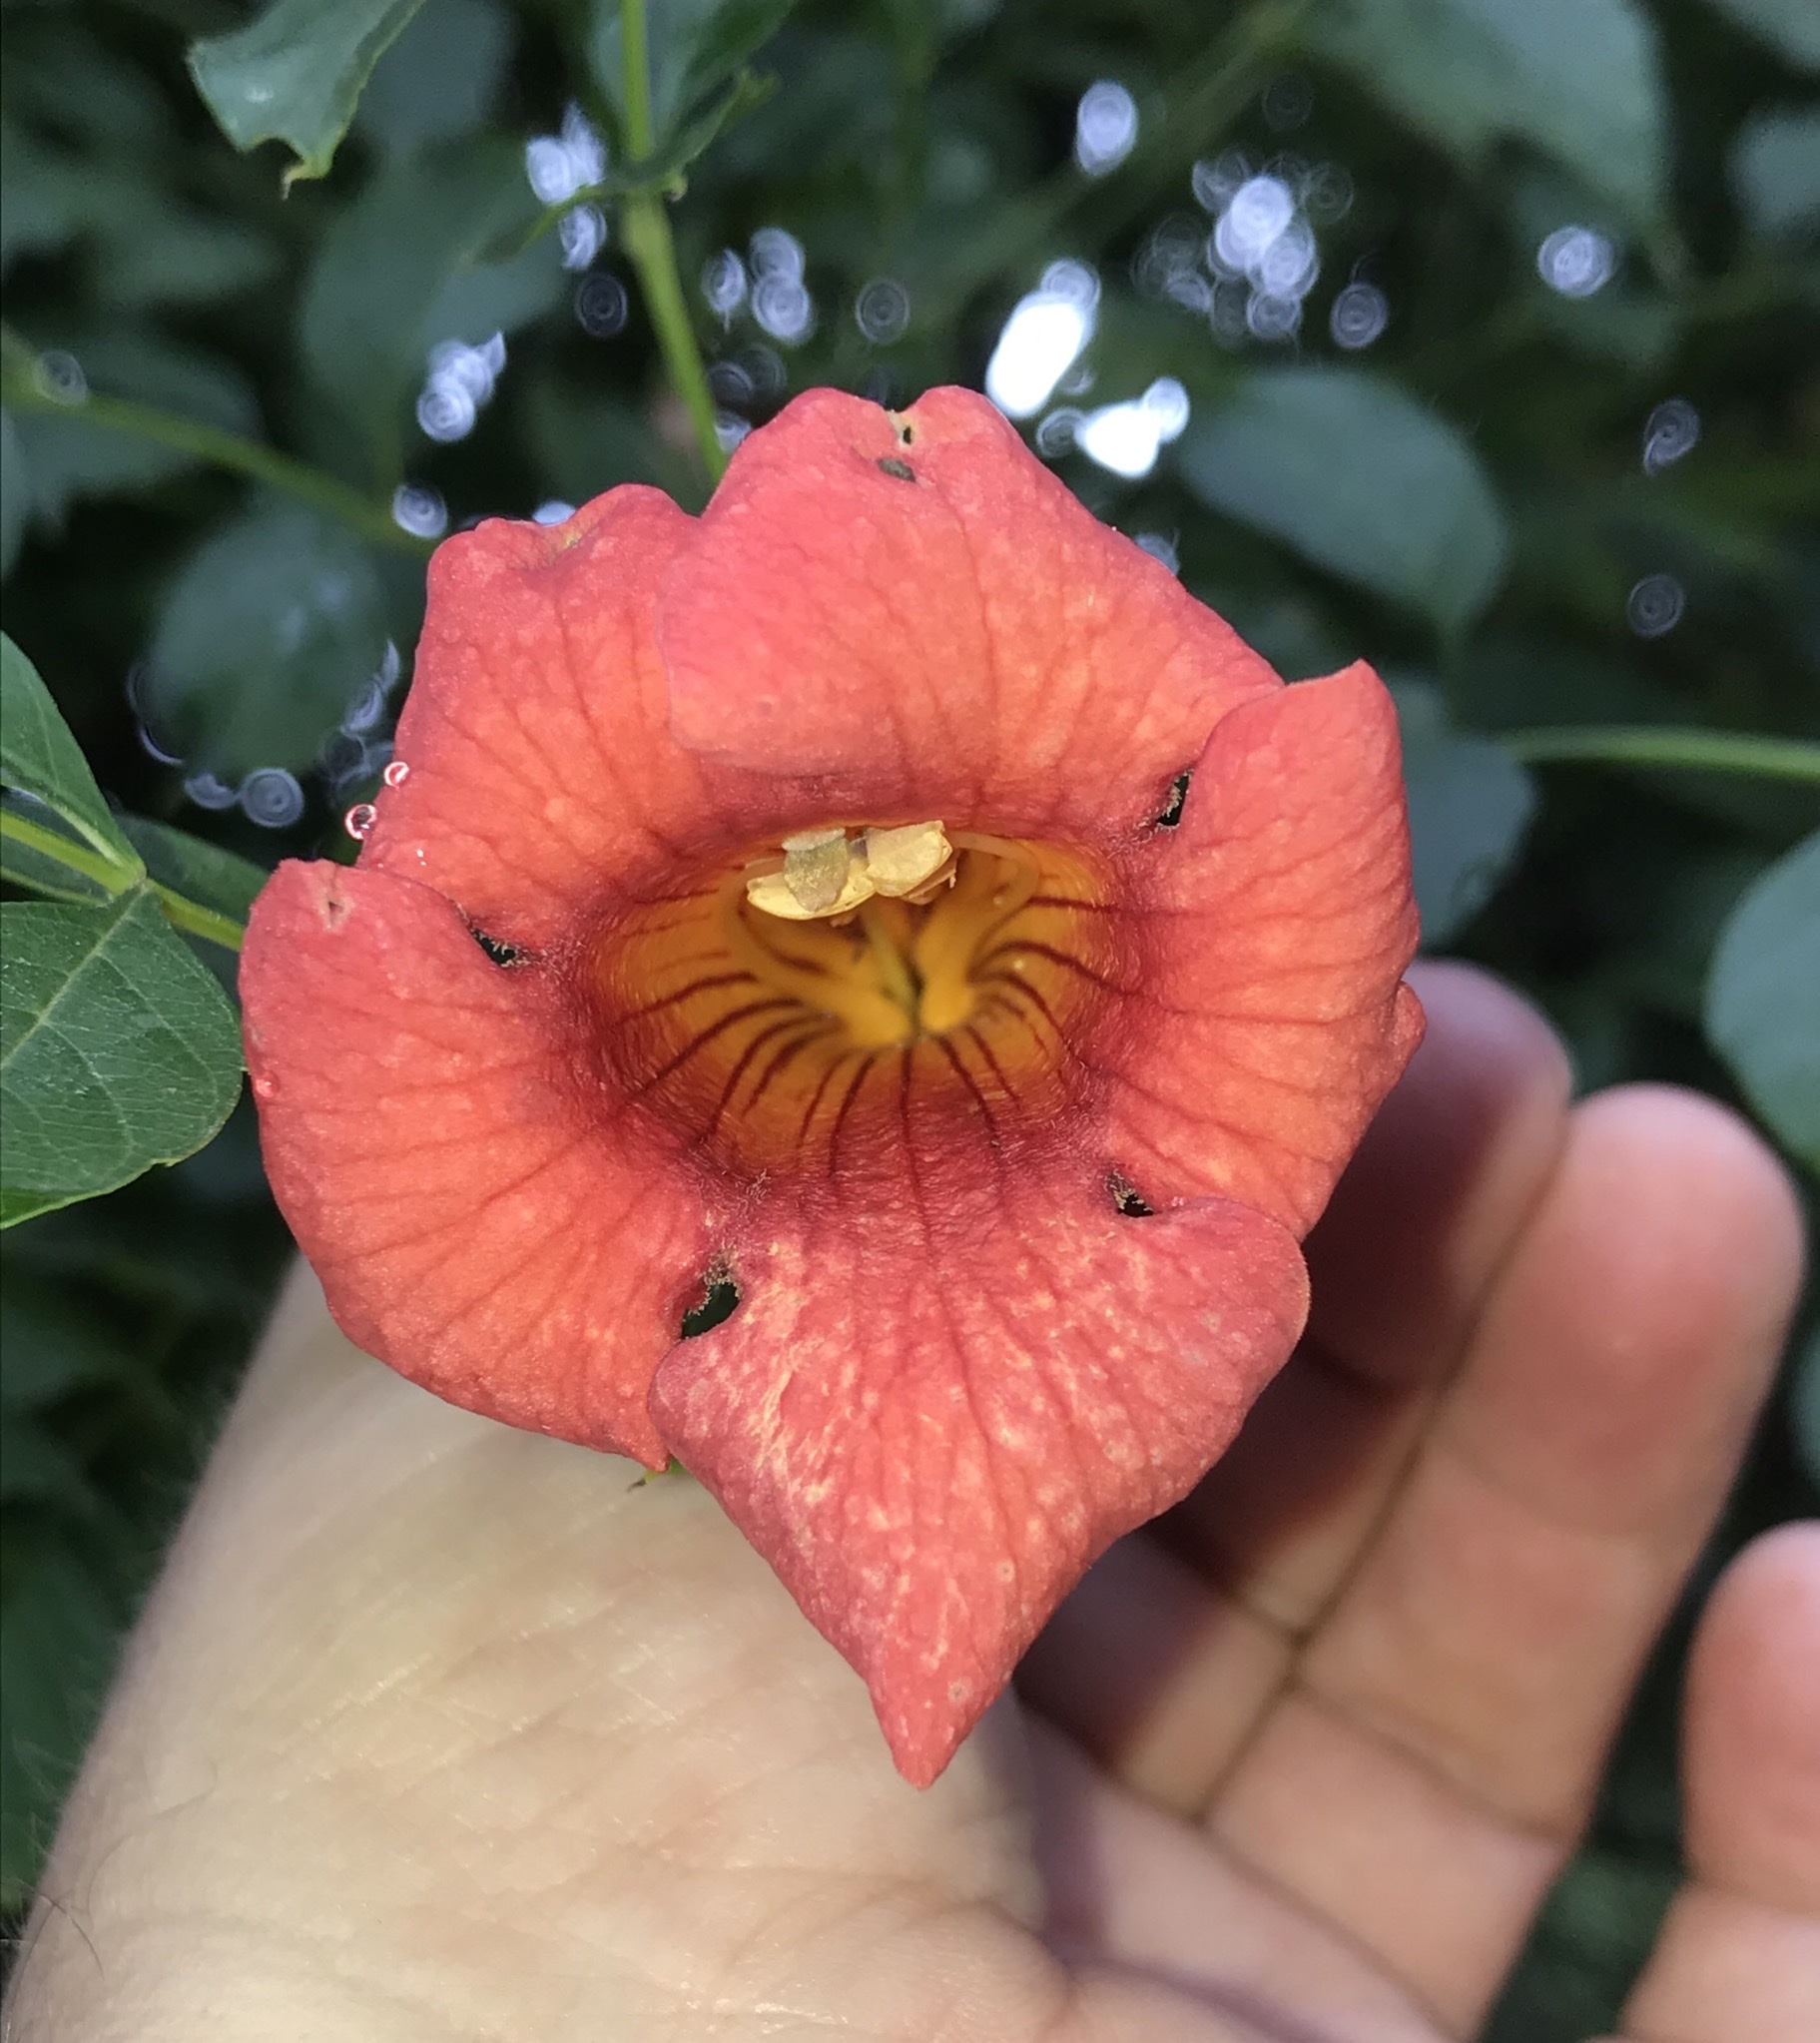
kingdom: Plantae
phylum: Tracheophyta
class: Magnoliopsida
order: Lamiales
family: Bignoniaceae
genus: Campsis
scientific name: Campsis radicans
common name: Trumpet-creeper
